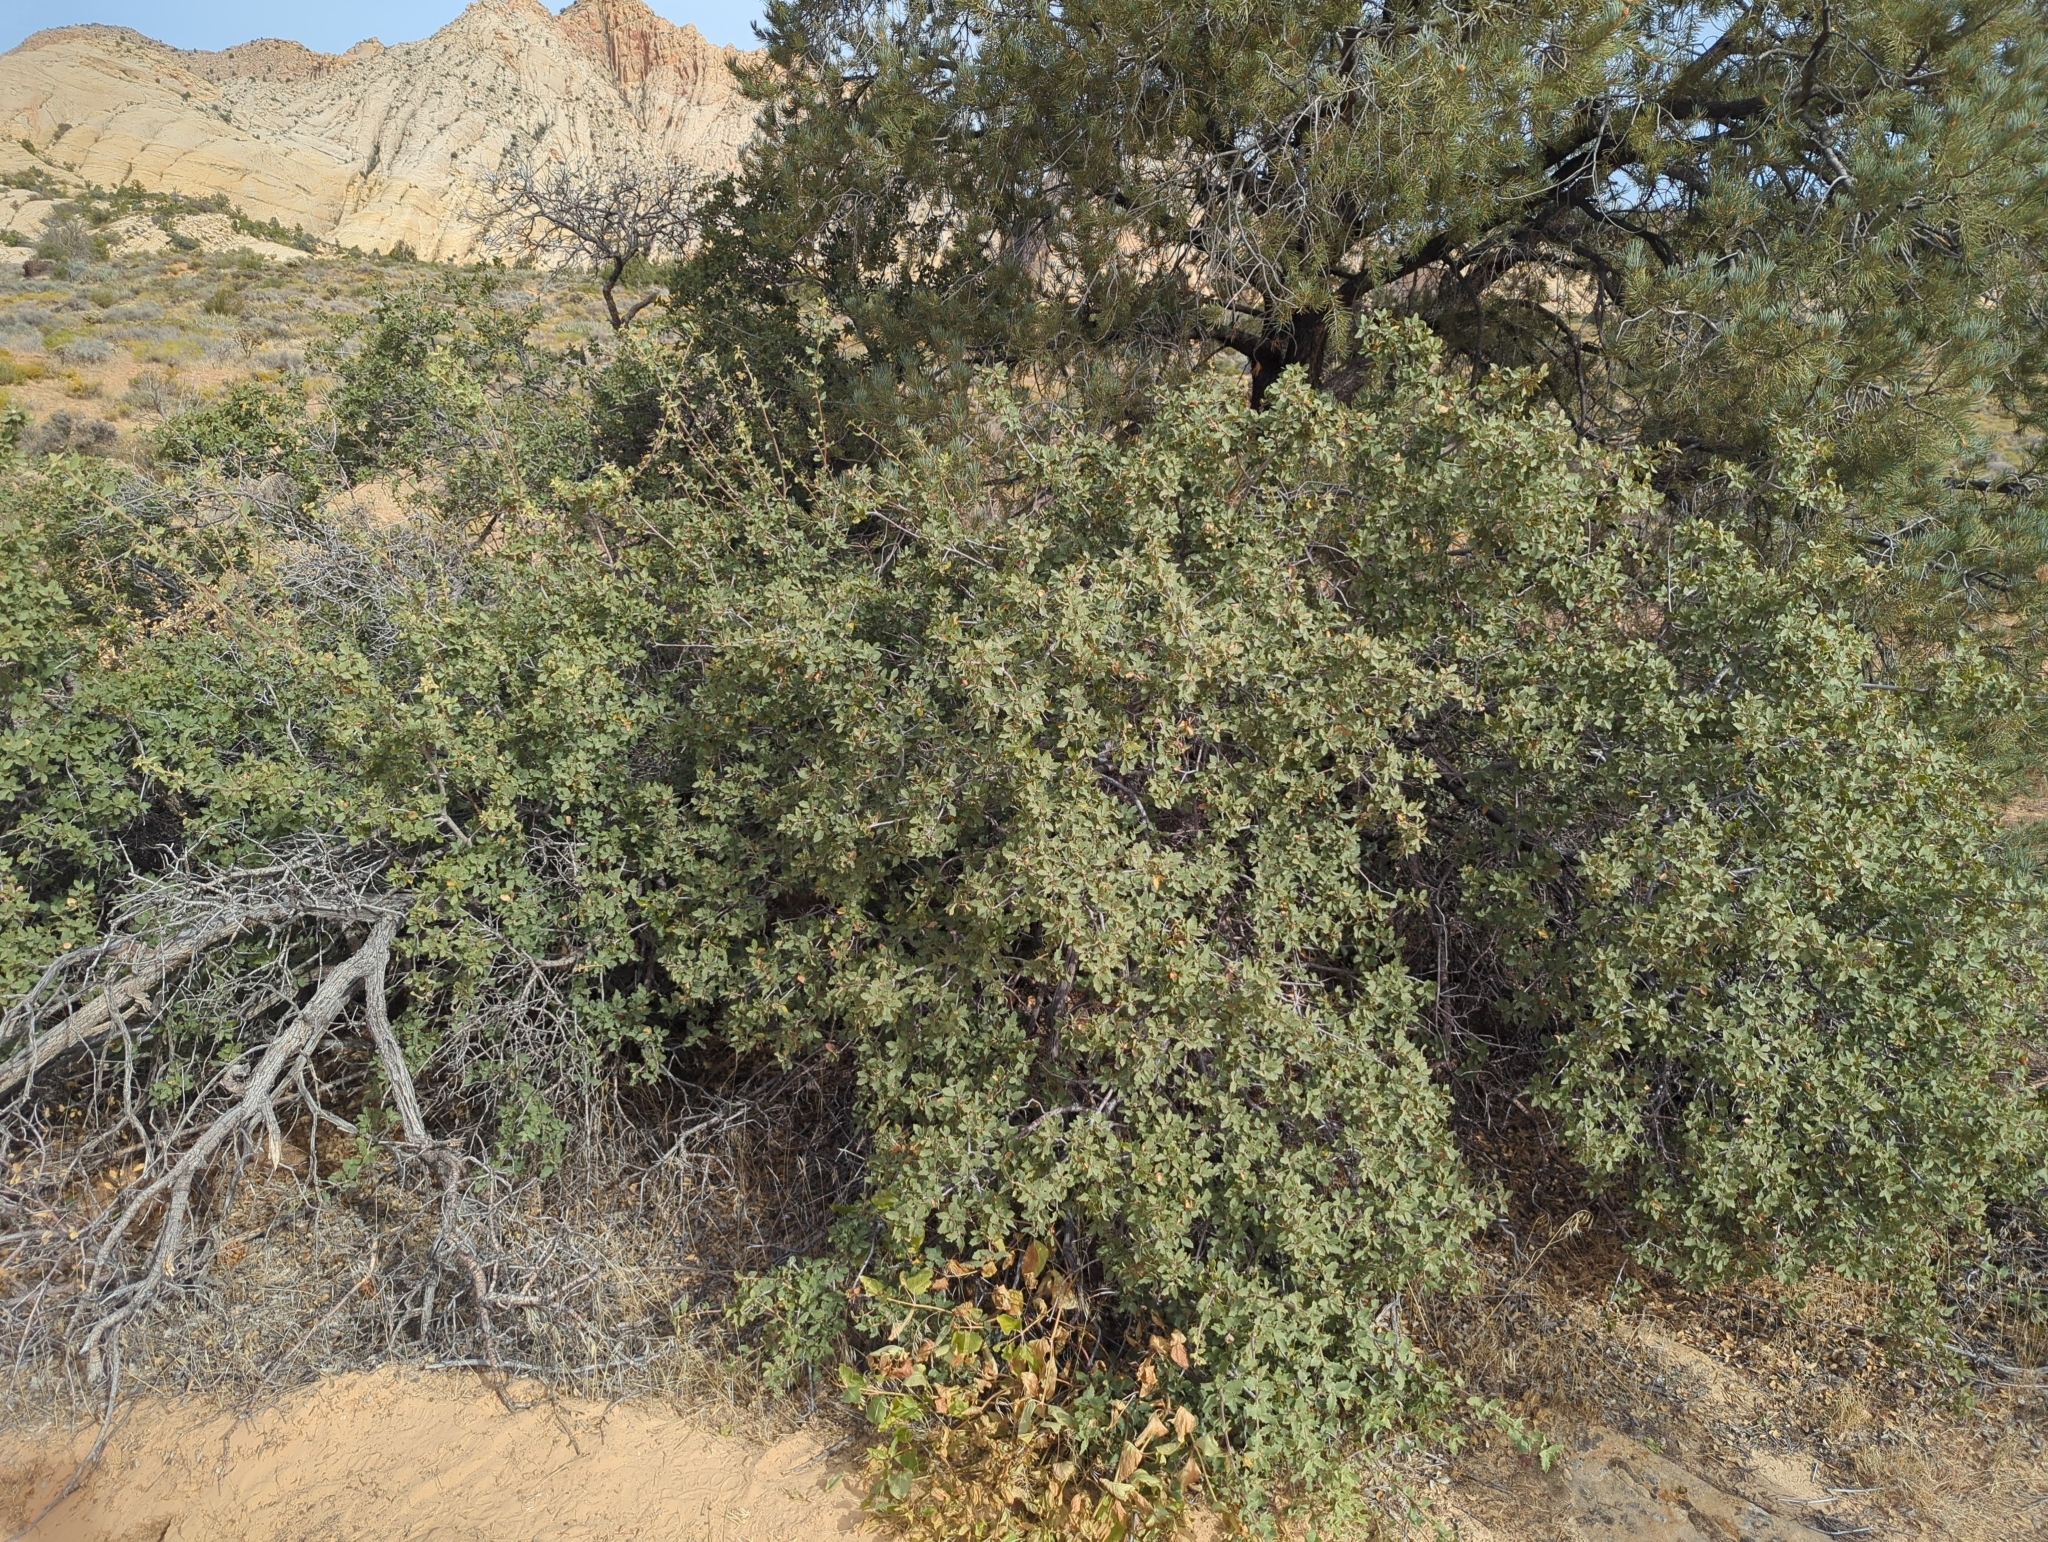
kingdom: Plantae
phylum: Tracheophyta
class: Magnoliopsida
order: Fagales
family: Fagaceae
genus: Quercus
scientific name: Quercus turbinella
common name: Sonoran scrub oak
